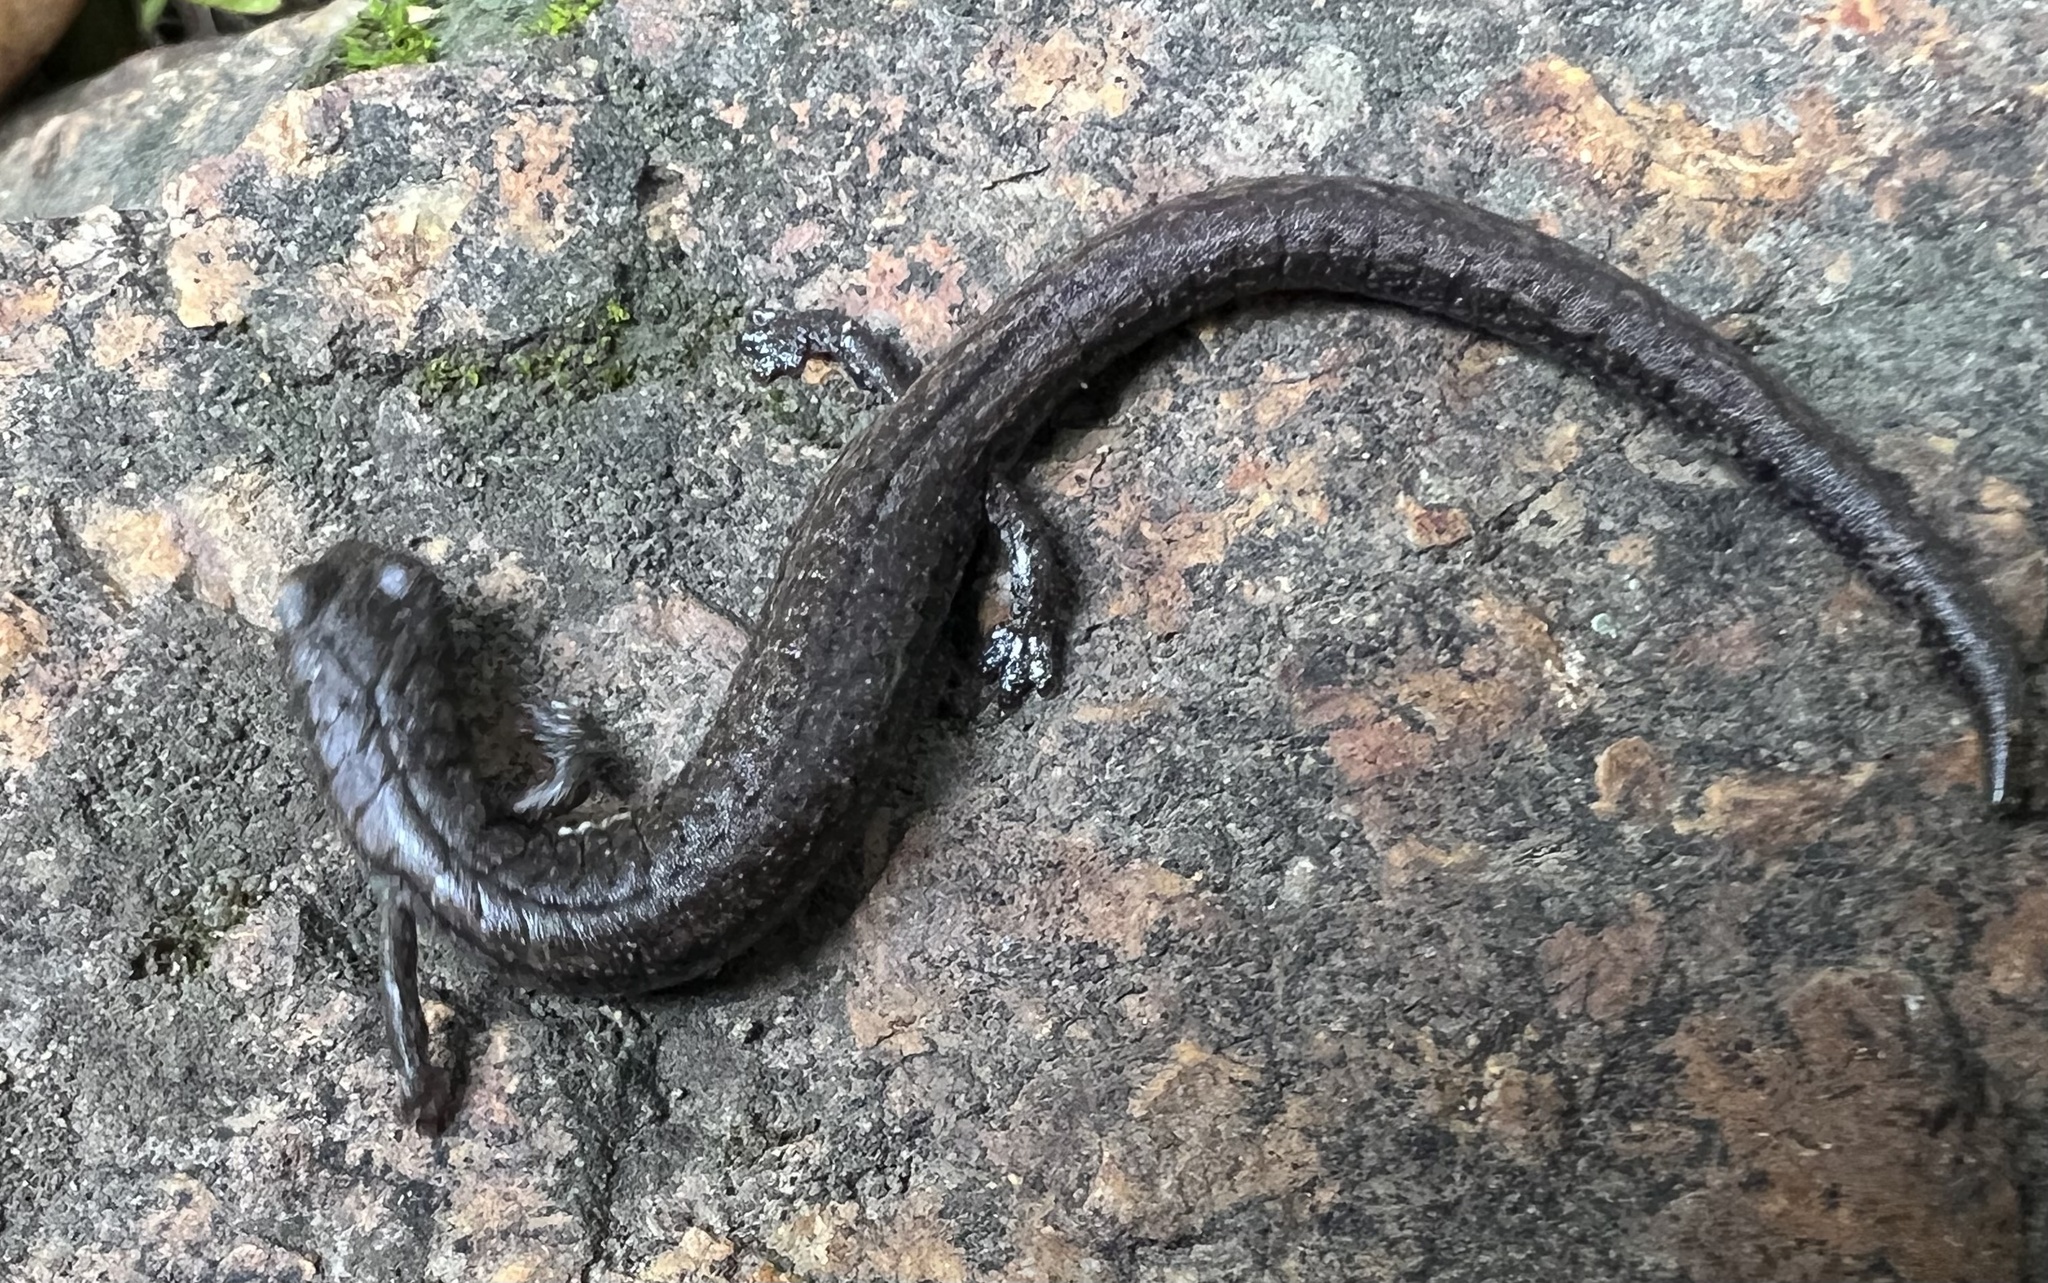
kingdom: Animalia
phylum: Chordata
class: Amphibia
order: Caudata
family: Plethodontidae
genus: Batrachoseps
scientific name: Batrachoseps stebbinsi
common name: Tehachapi slender salamander
